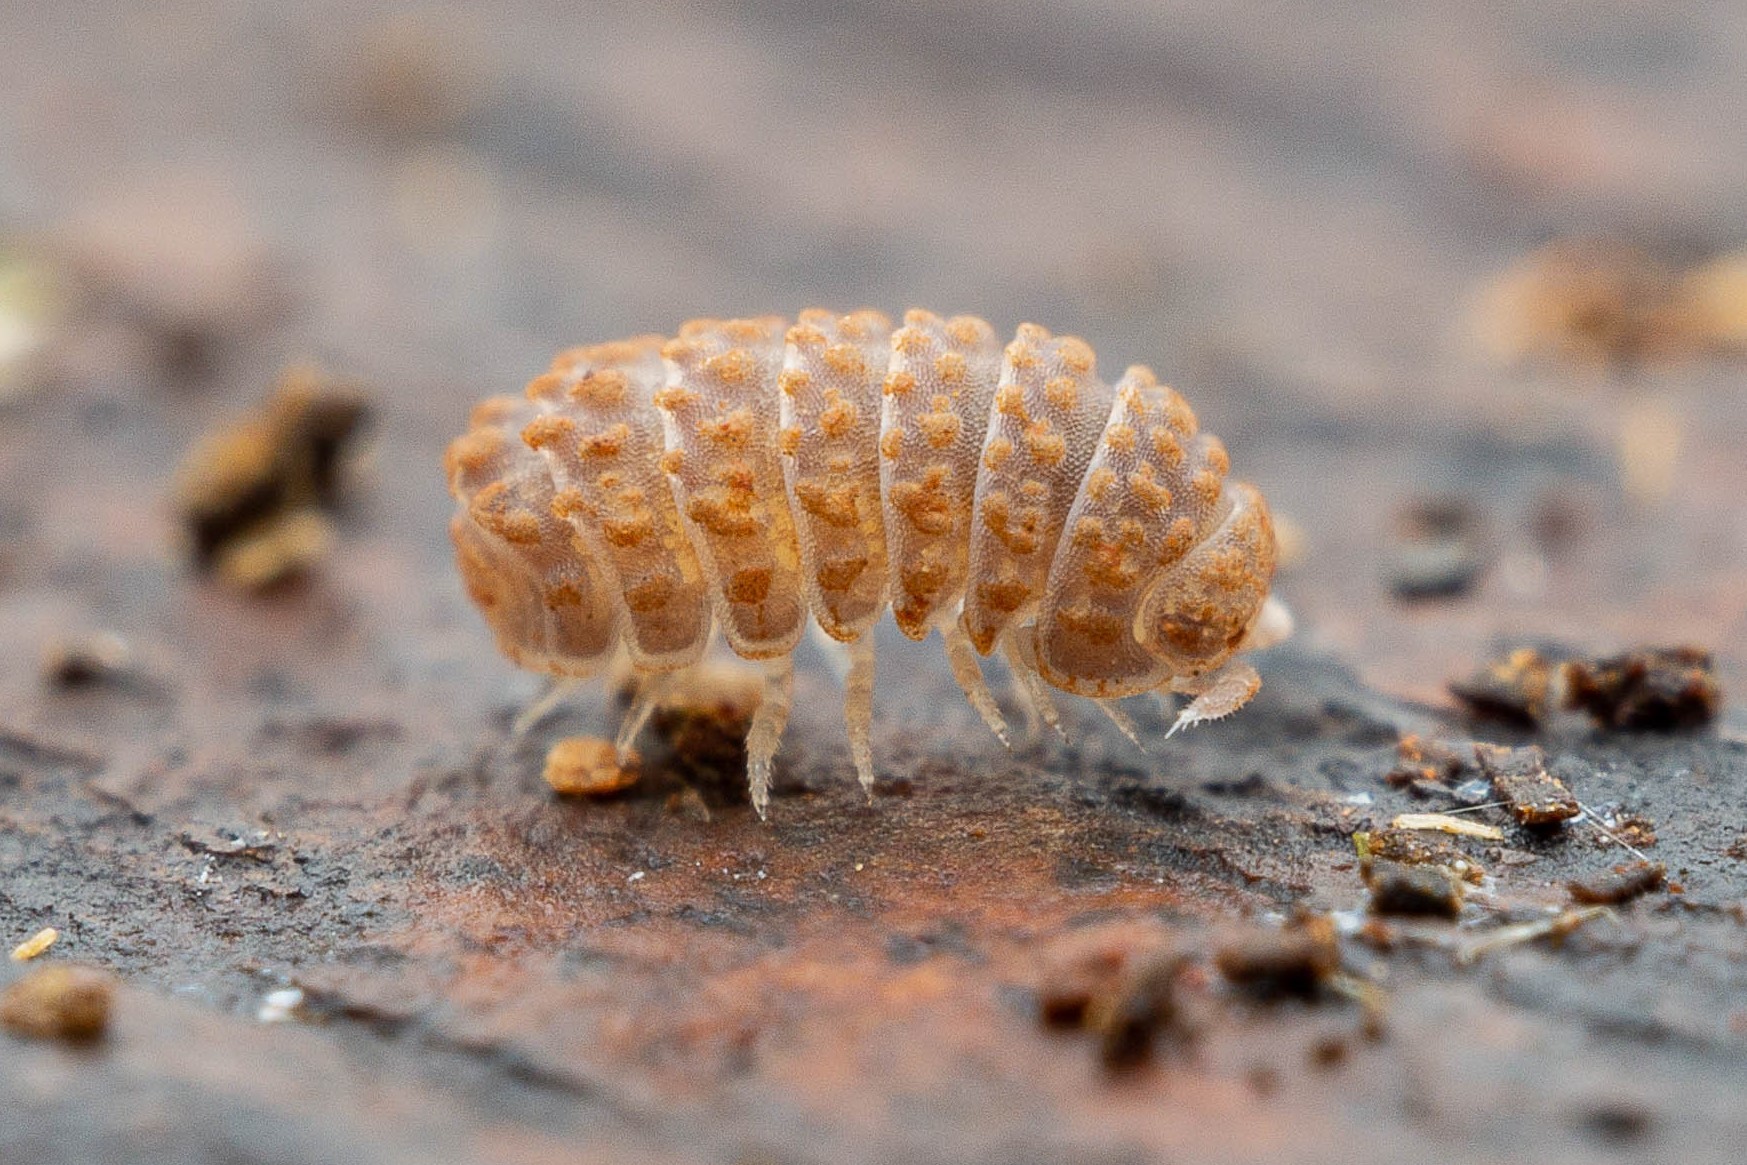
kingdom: Animalia
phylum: Arthropoda
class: Malacostraca
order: Isopoda
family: Armadillidae
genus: Reductoniscus
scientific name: Reductoniscus costulatus
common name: Pillbug
